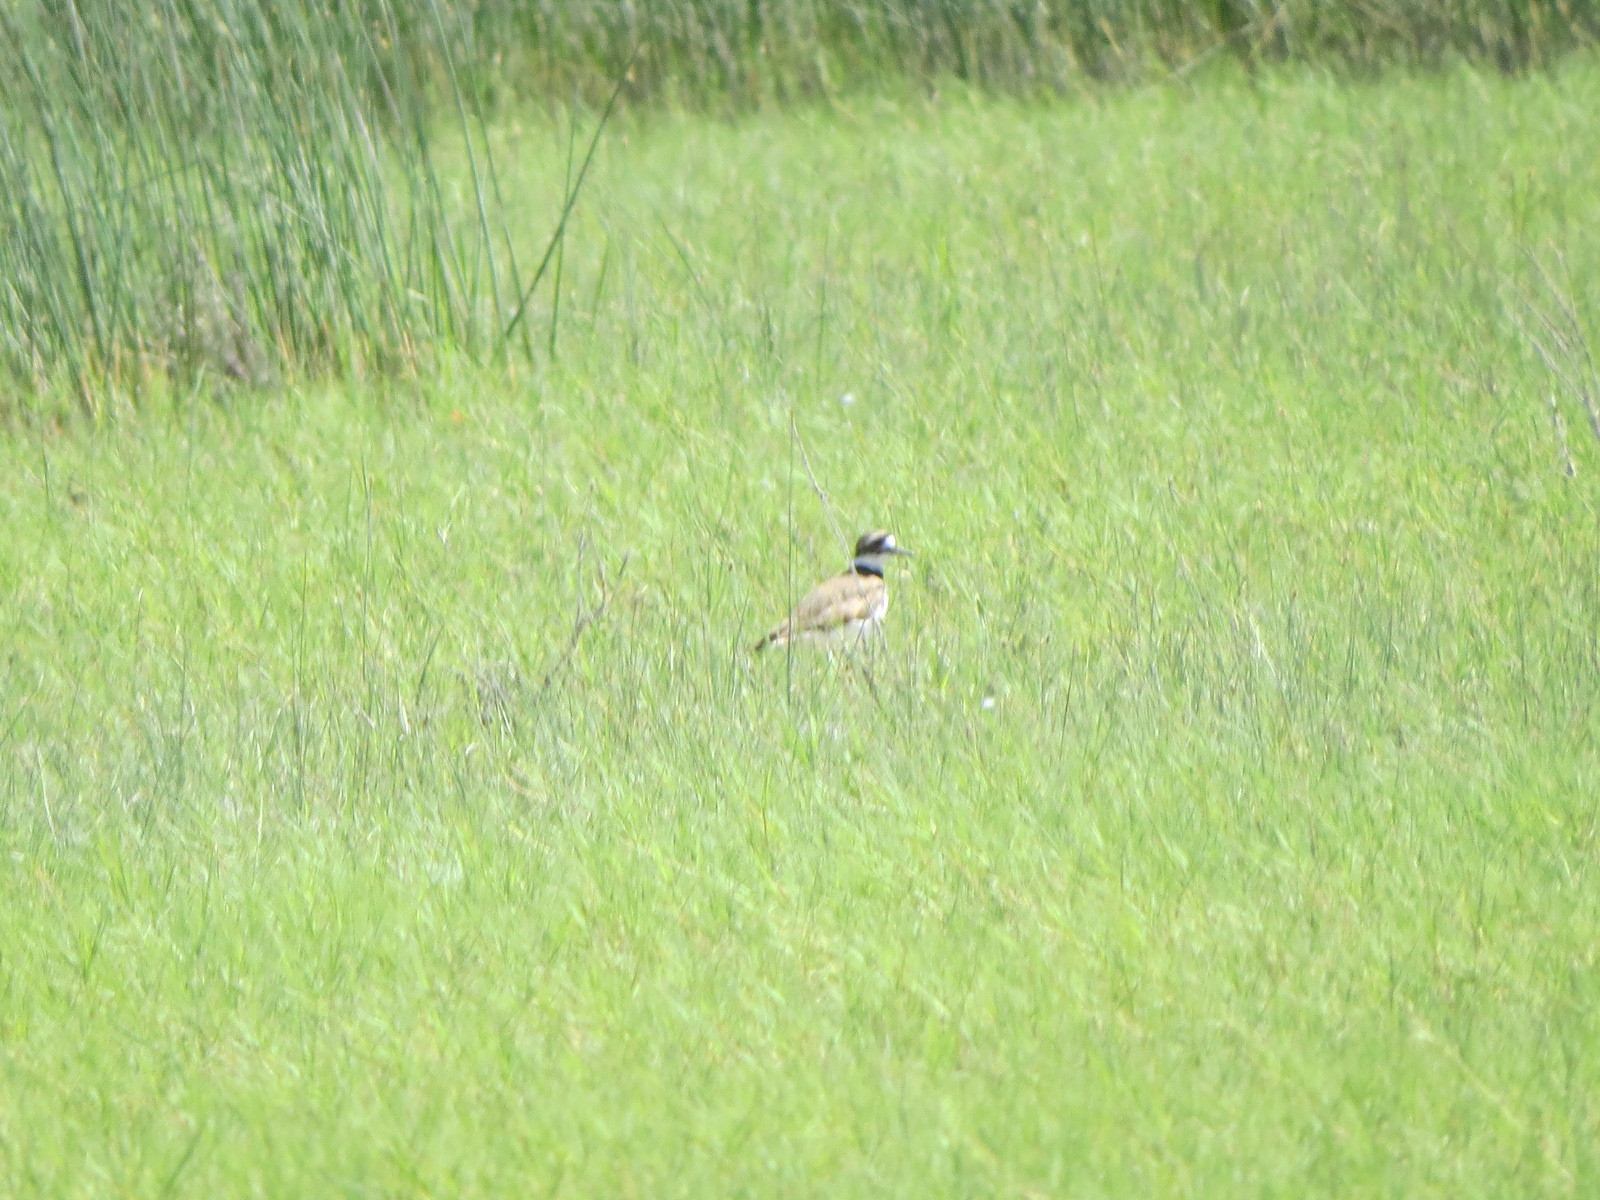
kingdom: Animalia
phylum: Chordata
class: Aves
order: Charadriiformes
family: Charadriidae
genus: Charadrius
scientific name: Charadrius vociferus
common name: Killdeer
